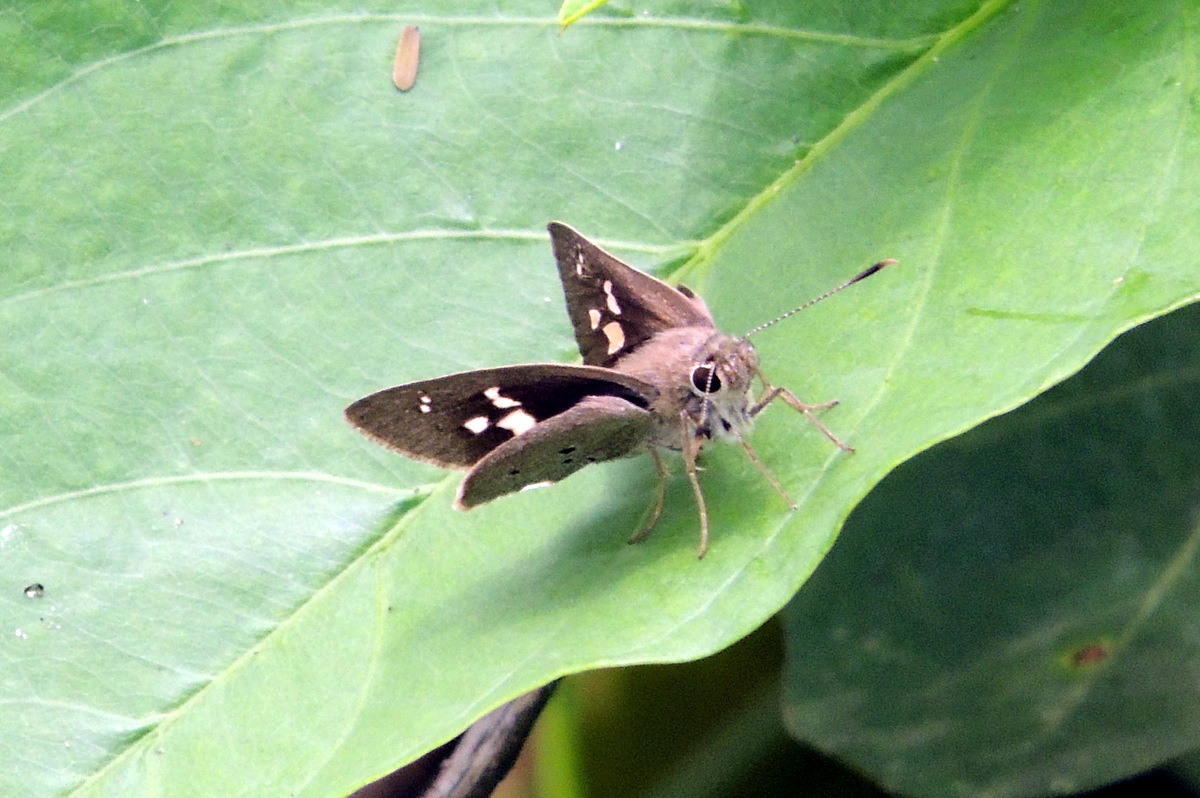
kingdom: Animalia
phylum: Arthropoda
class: Insecta
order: Lepidoptera
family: Hesperiidae
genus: Suastus
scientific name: Suastus gremius
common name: Indian palm bob
